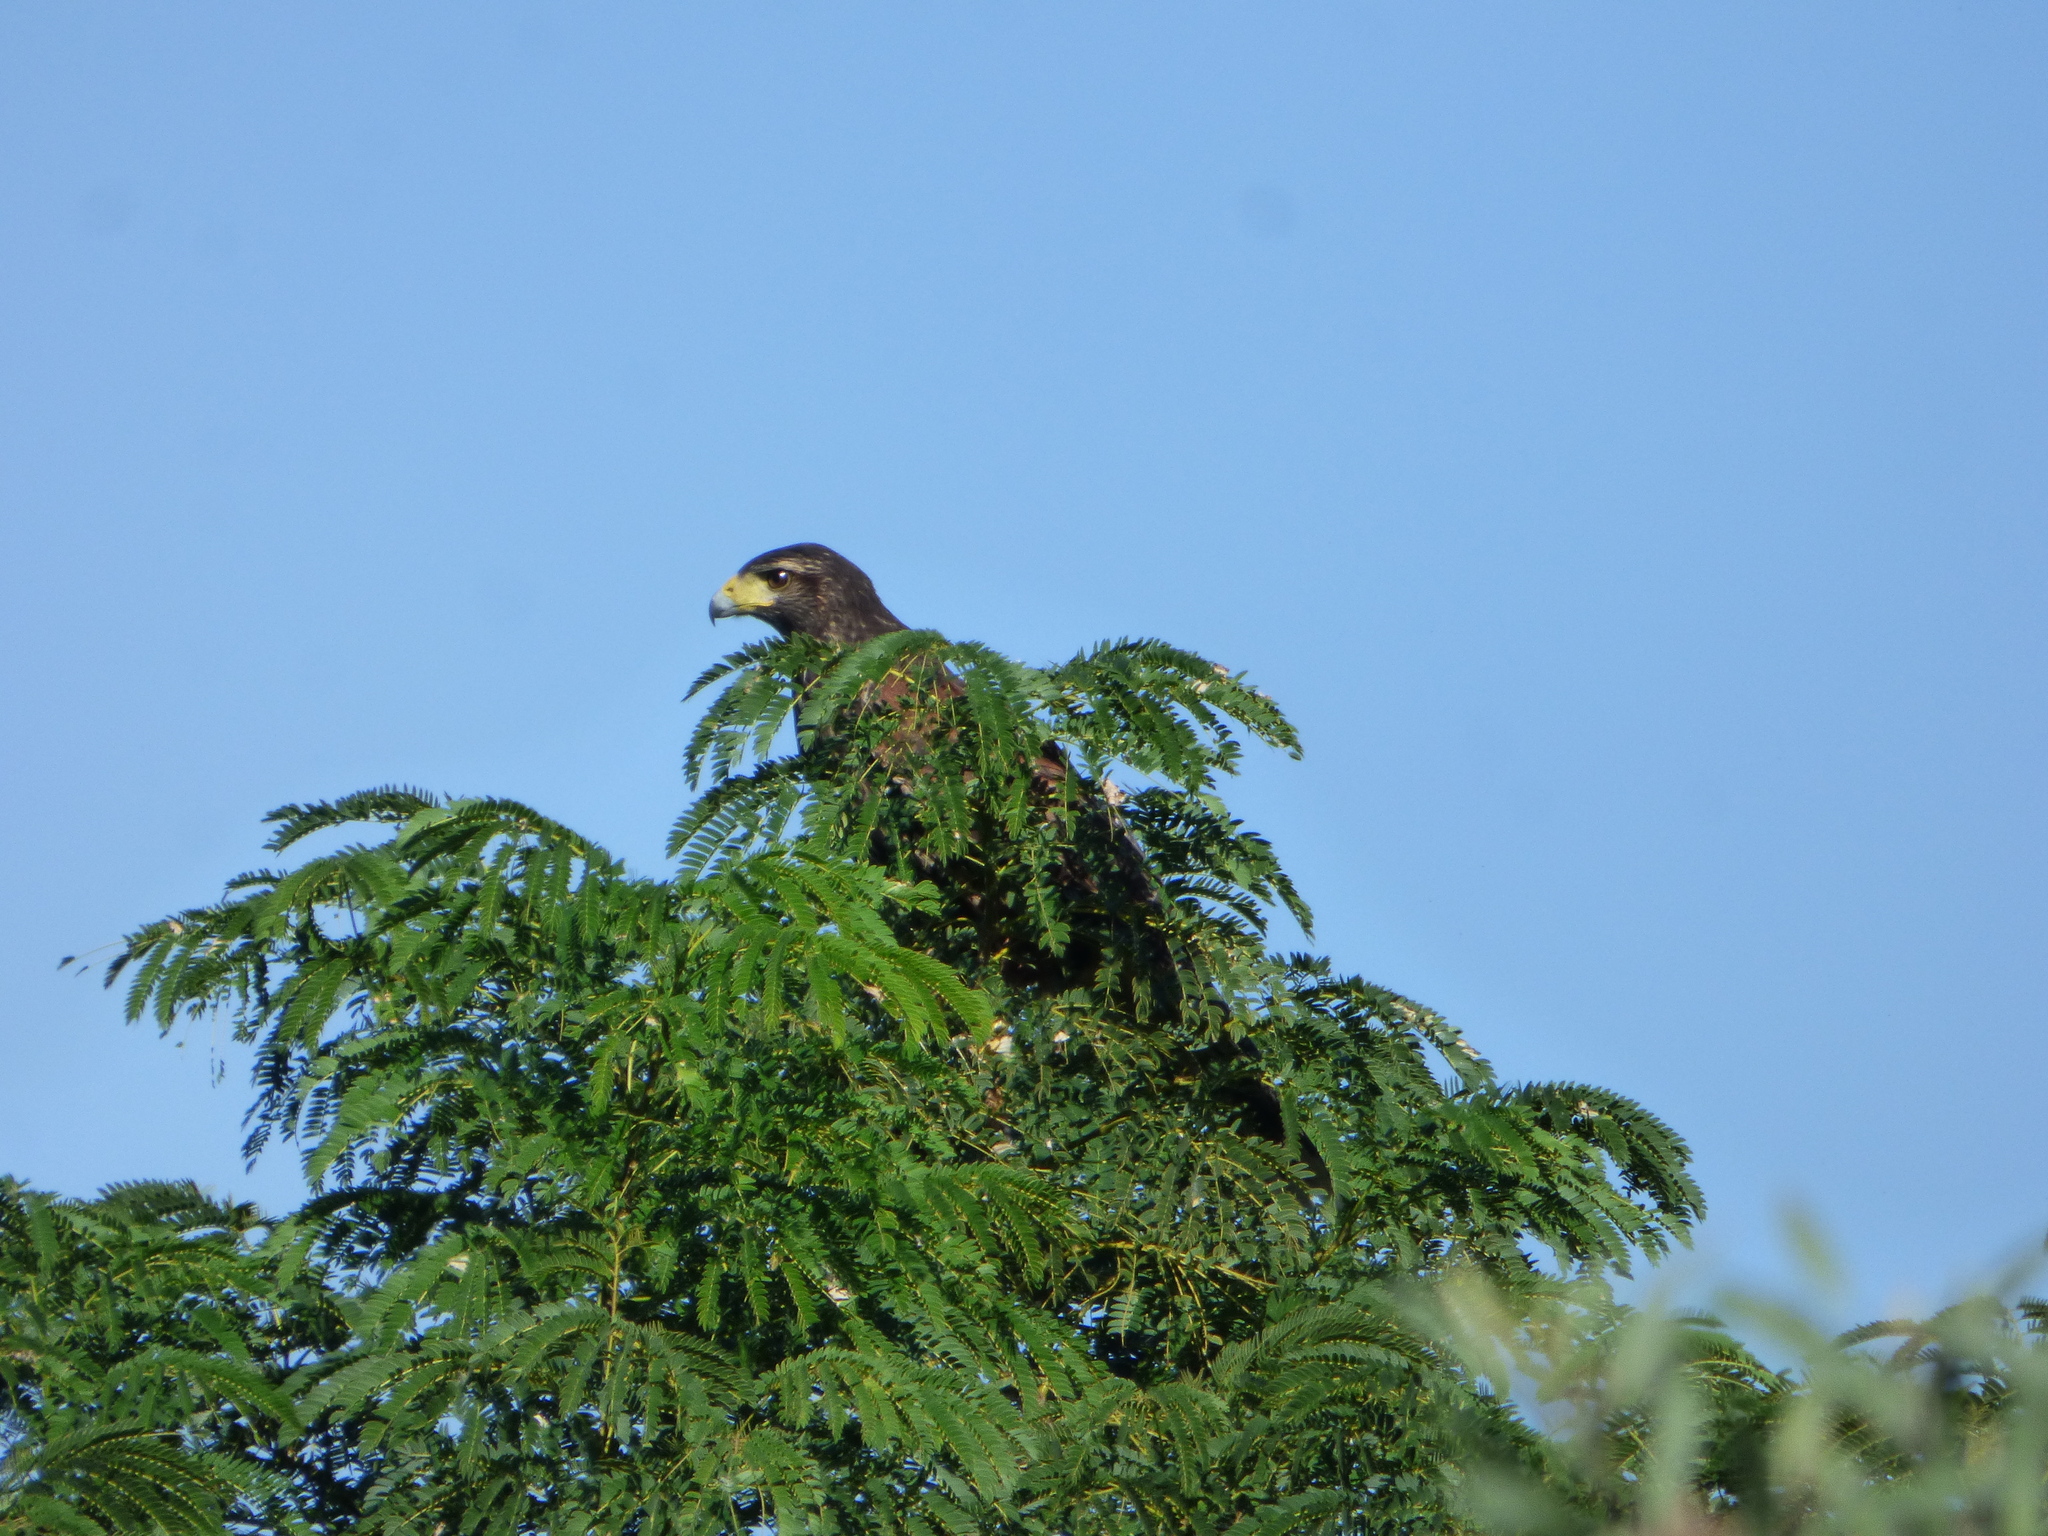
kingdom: Animalia
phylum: Chordata
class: Aves
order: Accipitriformes
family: Accipitridae
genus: Parabuteo
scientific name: Parabuteo unicinctus
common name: Harris's hawk
